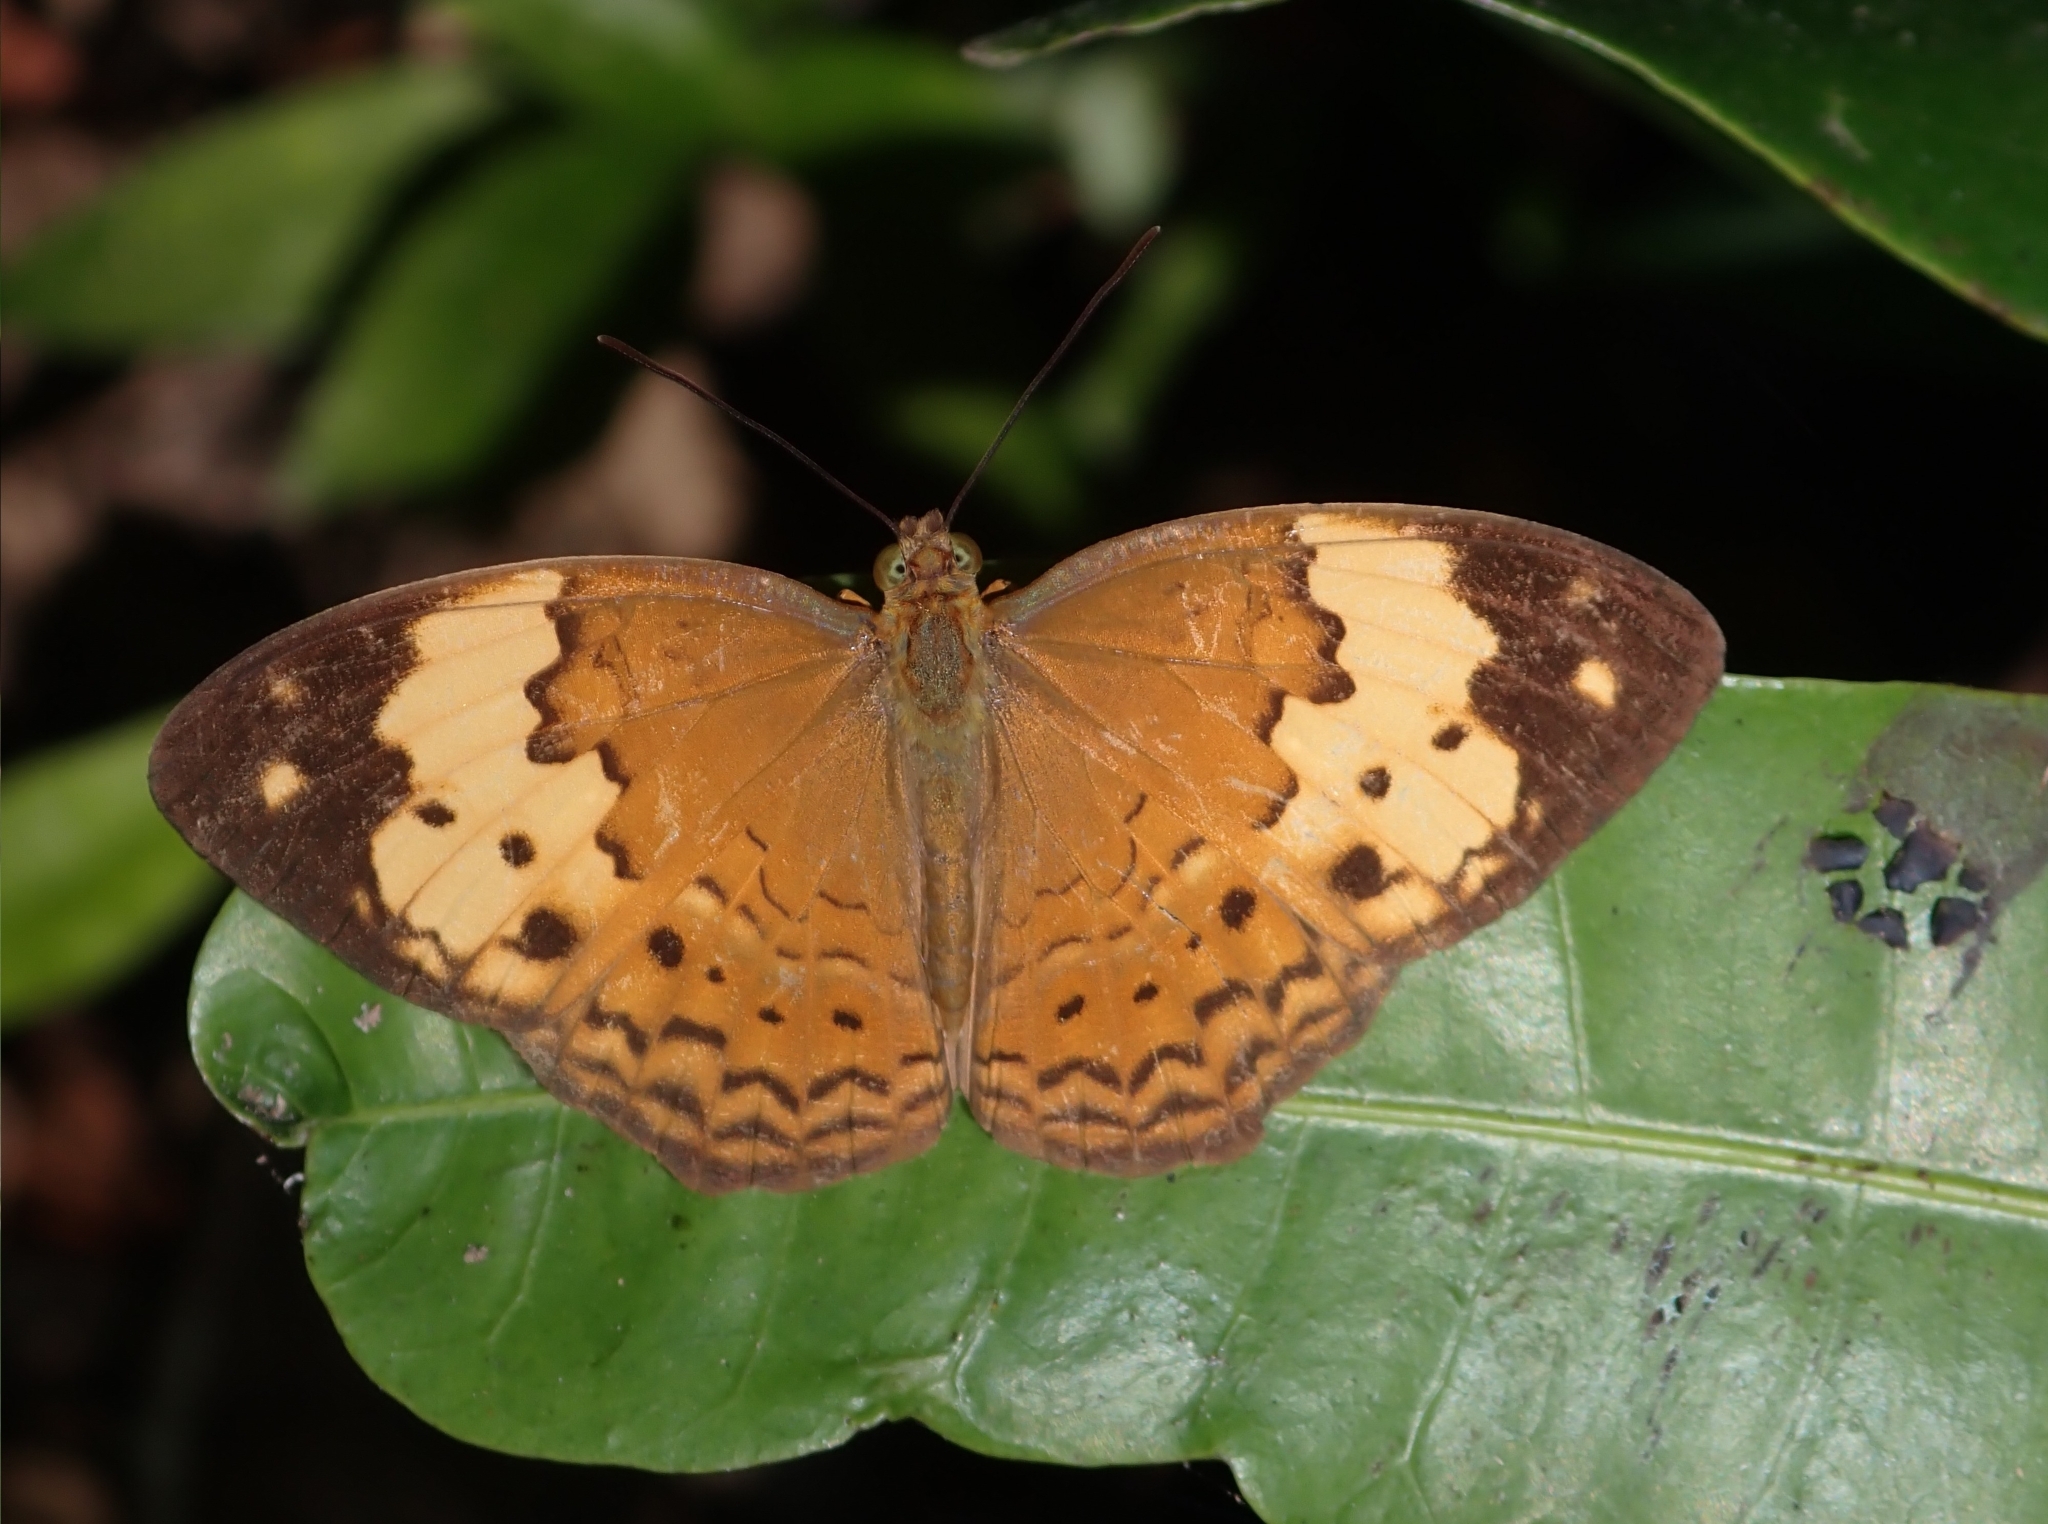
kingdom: Animalia
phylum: Arthropoda
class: Insecta
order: Lepidoptera
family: Nymphalidae
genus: Cupha
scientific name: Cupha erymanthis
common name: Rustic
